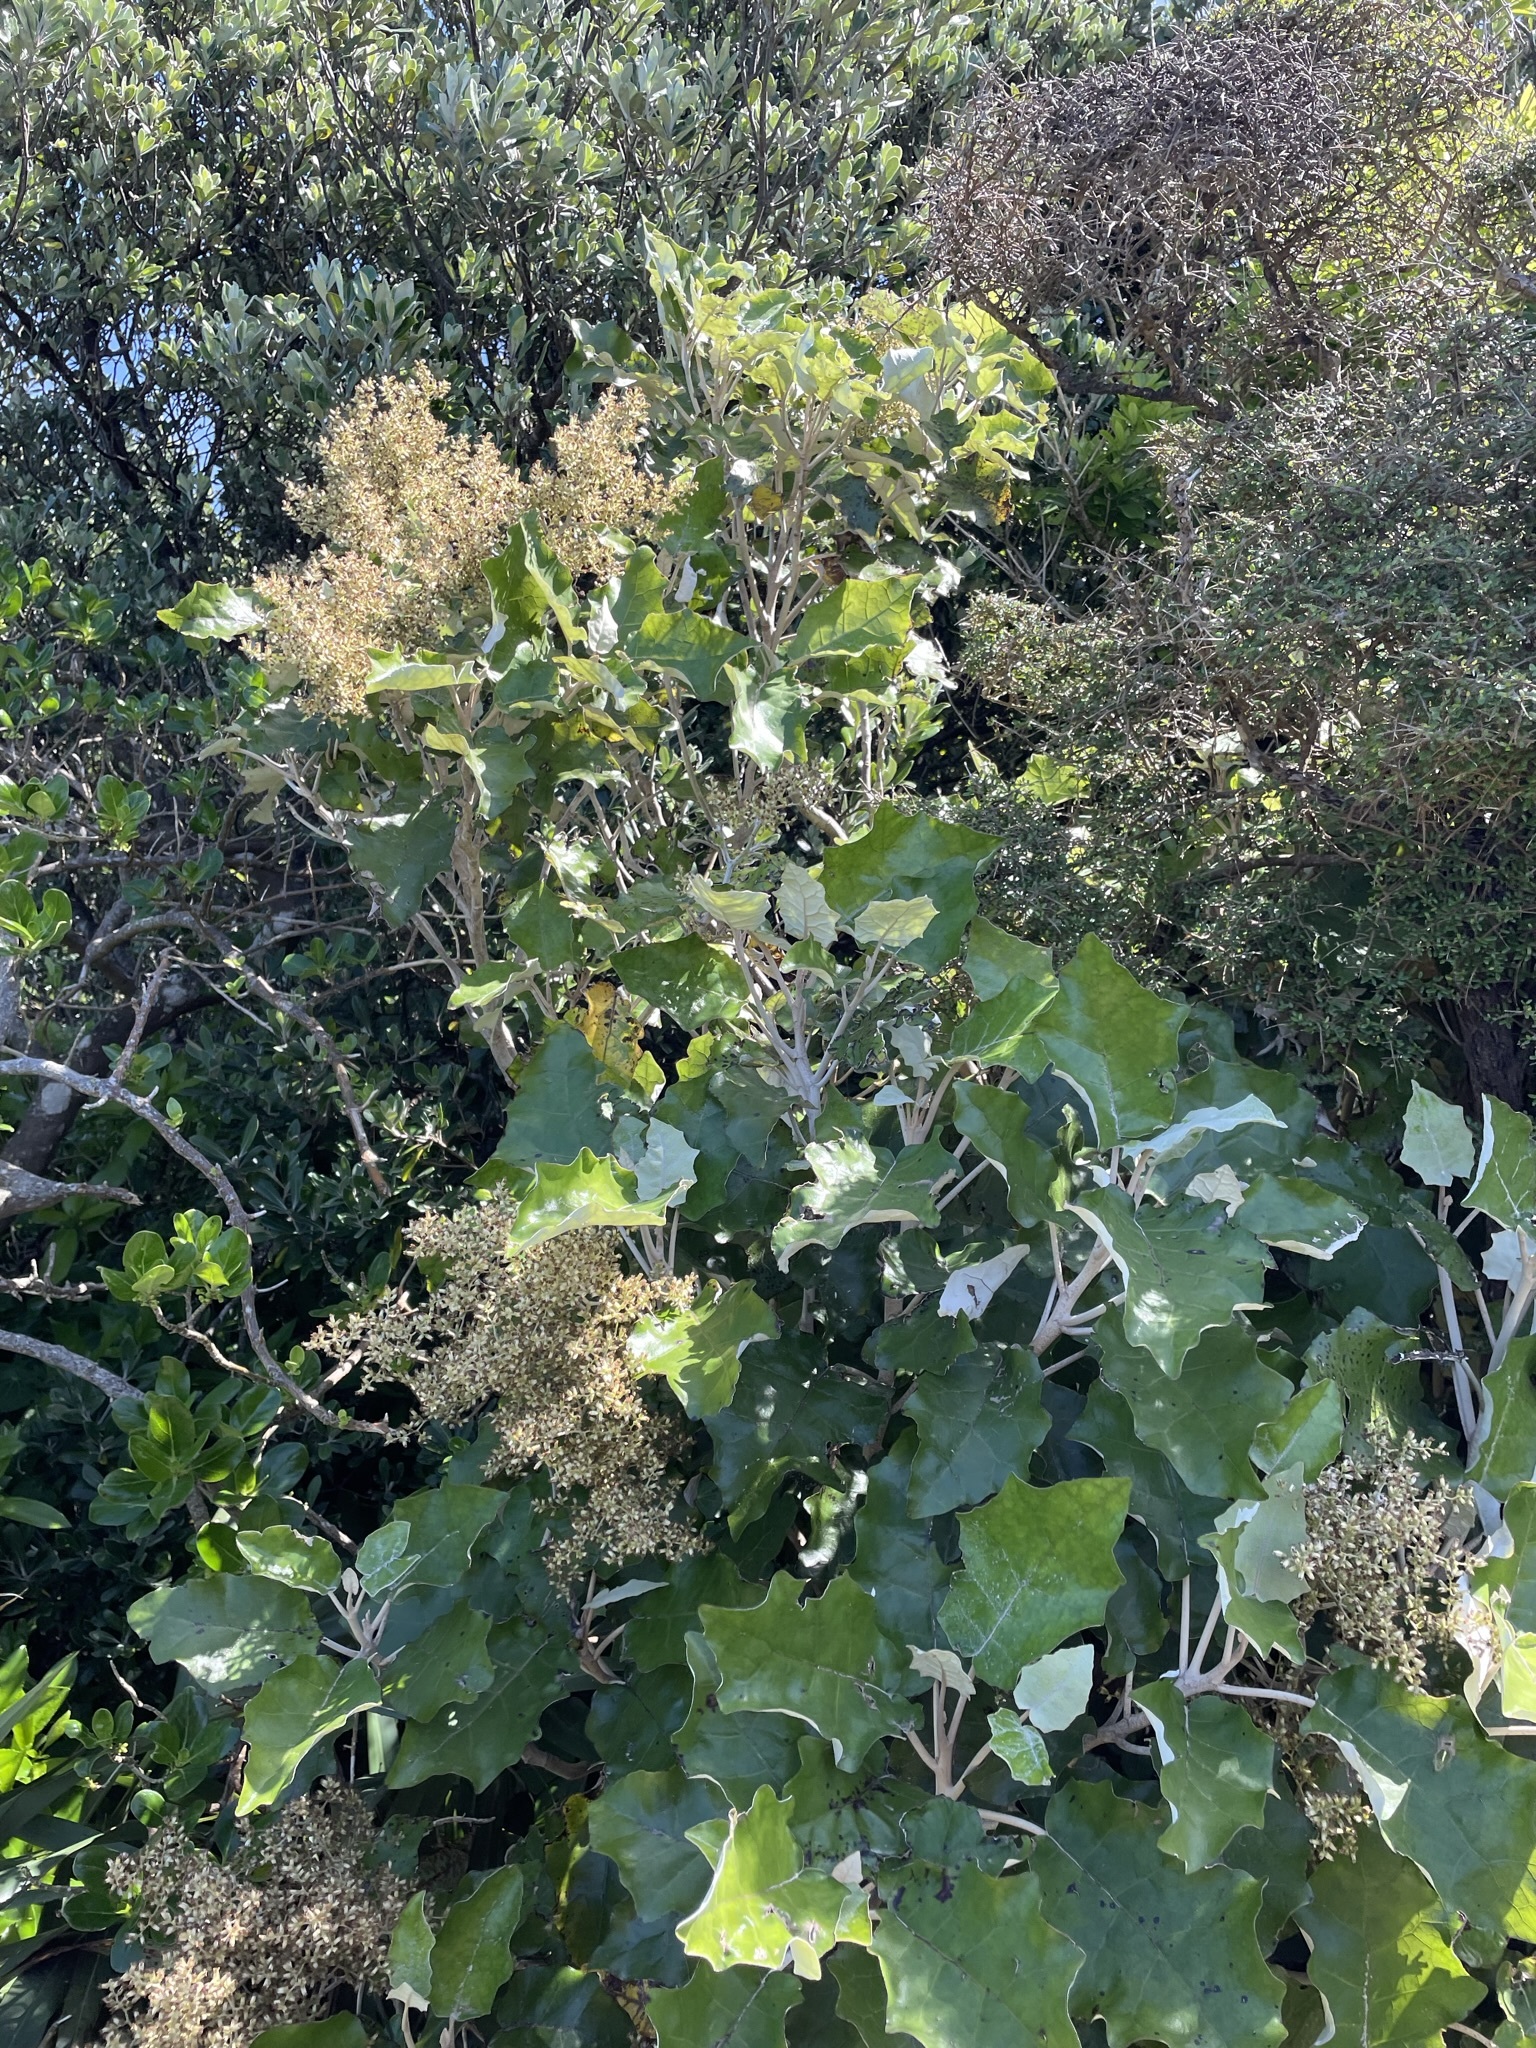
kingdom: Plantae
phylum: Tracheophyta
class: Magnoliopsida
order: Asterales
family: Asteraceae
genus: Brachyglottis
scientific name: Brachyglottis repanda
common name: Hedge ragwort
